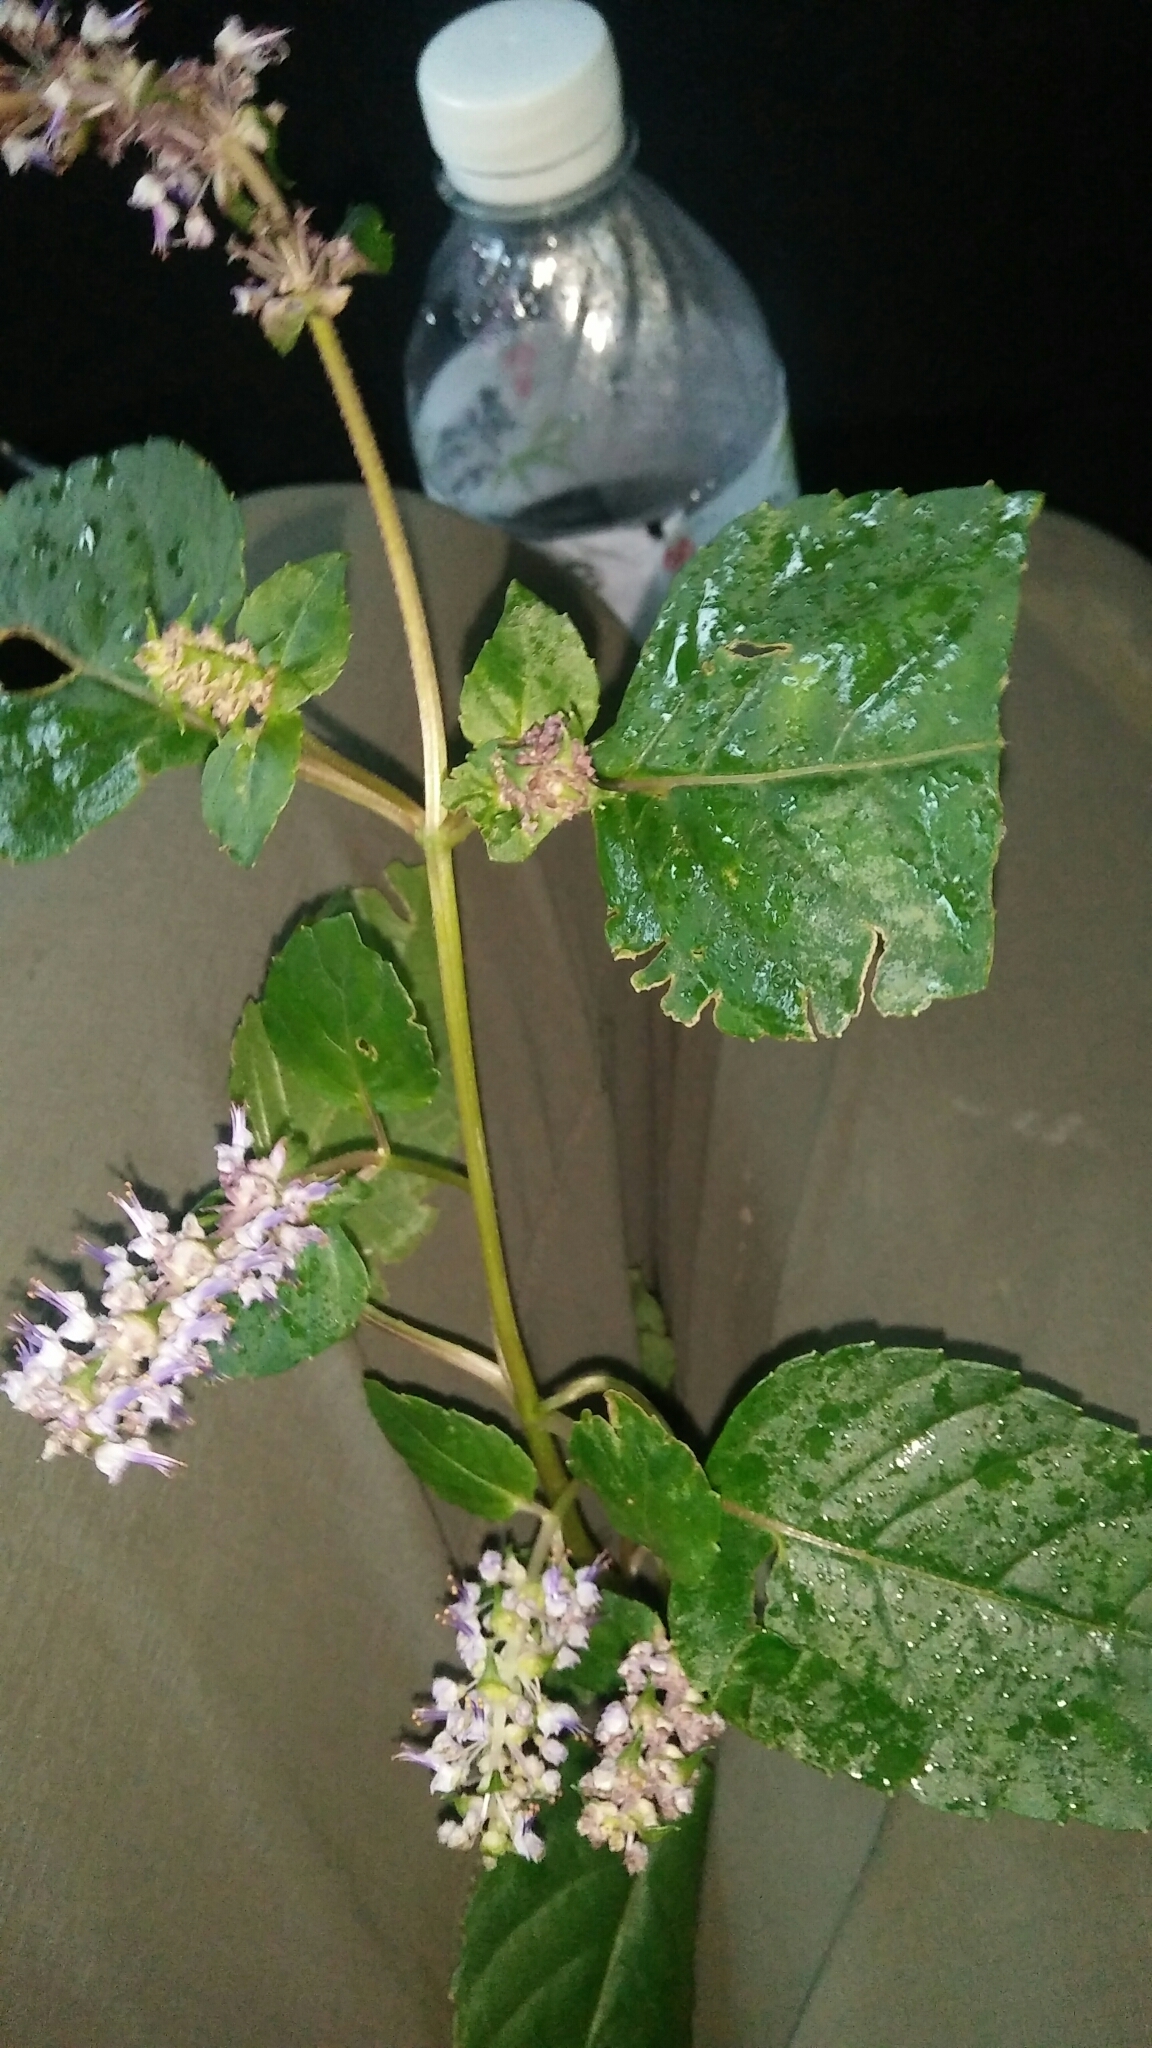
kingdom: Plantae
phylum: Tracheophyta
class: Magnoliopsida
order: Lamiales
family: Lamiaceae
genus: Platostoma
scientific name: Platostoma palustre
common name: Black cincau
